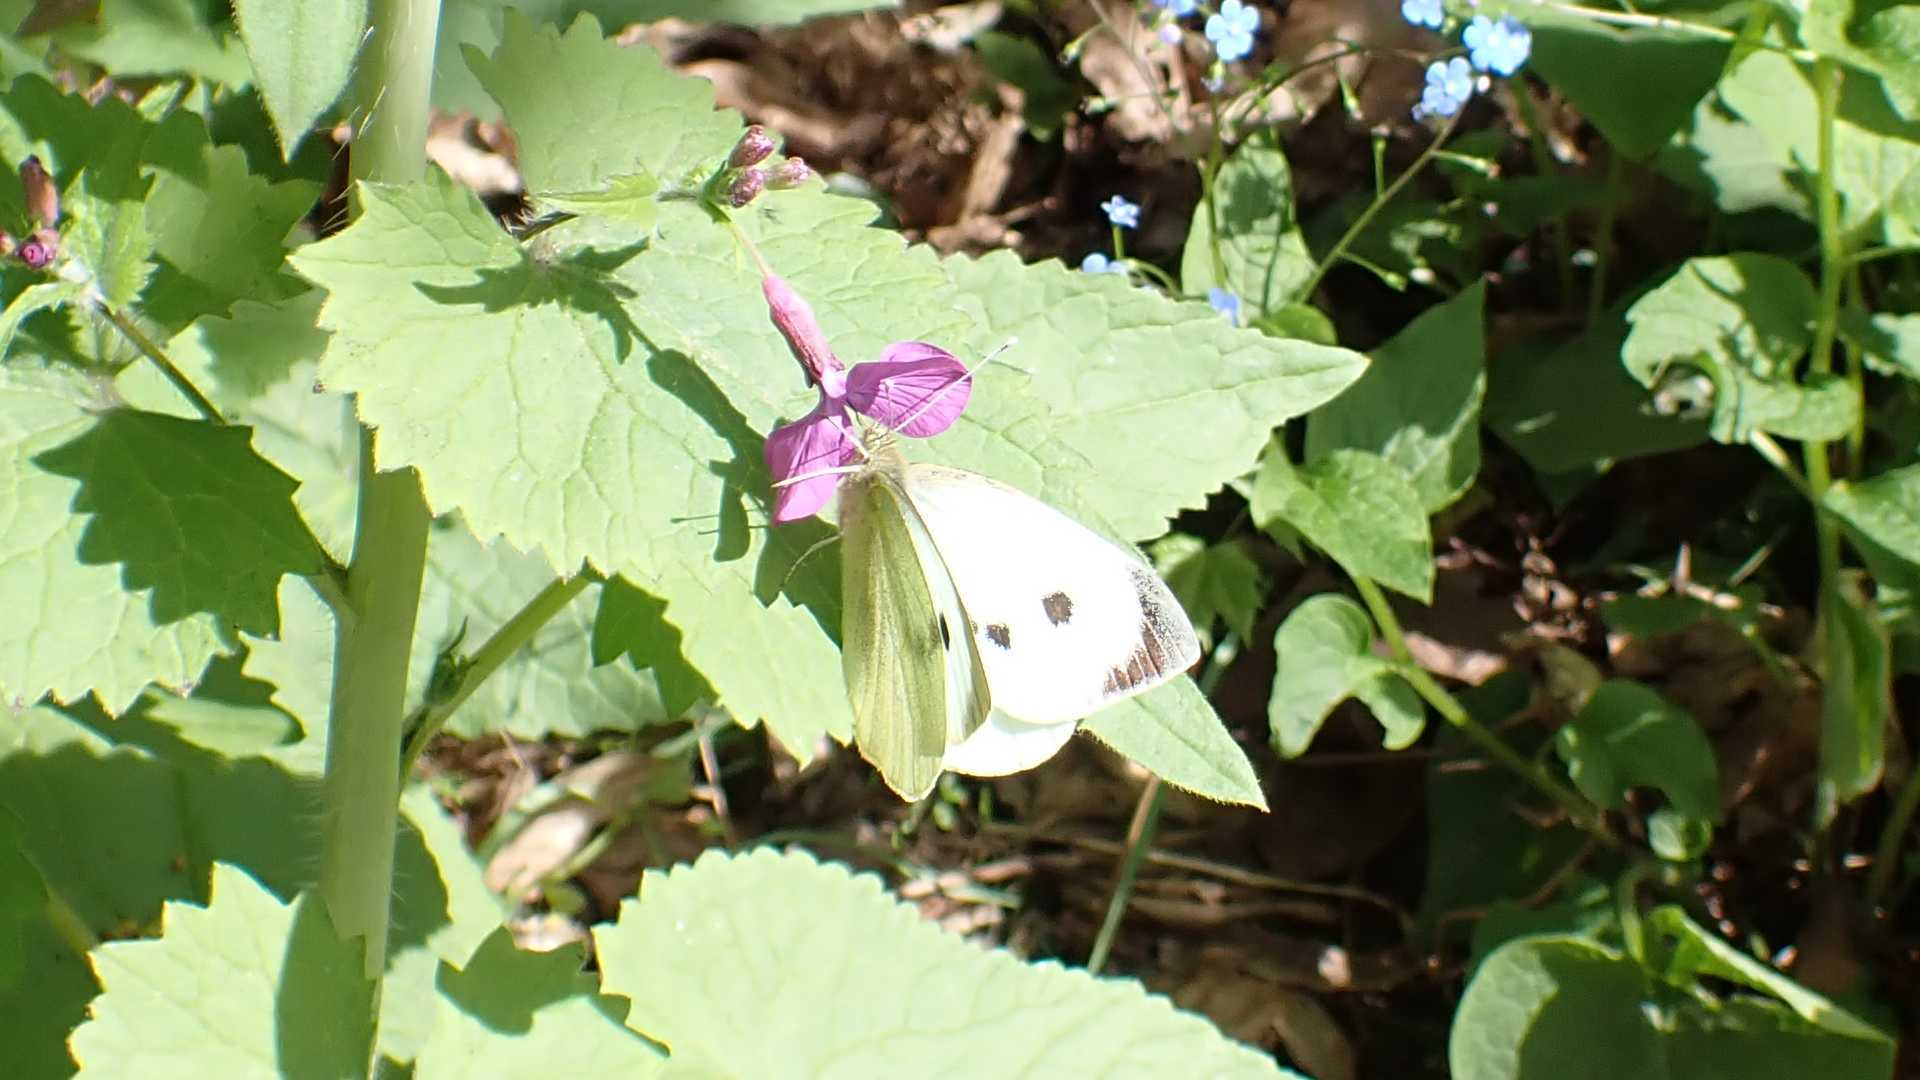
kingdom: Animalia
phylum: Arthropoda
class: Insecta
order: Lepidoptera
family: Pieridae
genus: Pieris
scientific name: Pieris brassicae
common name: Large white
